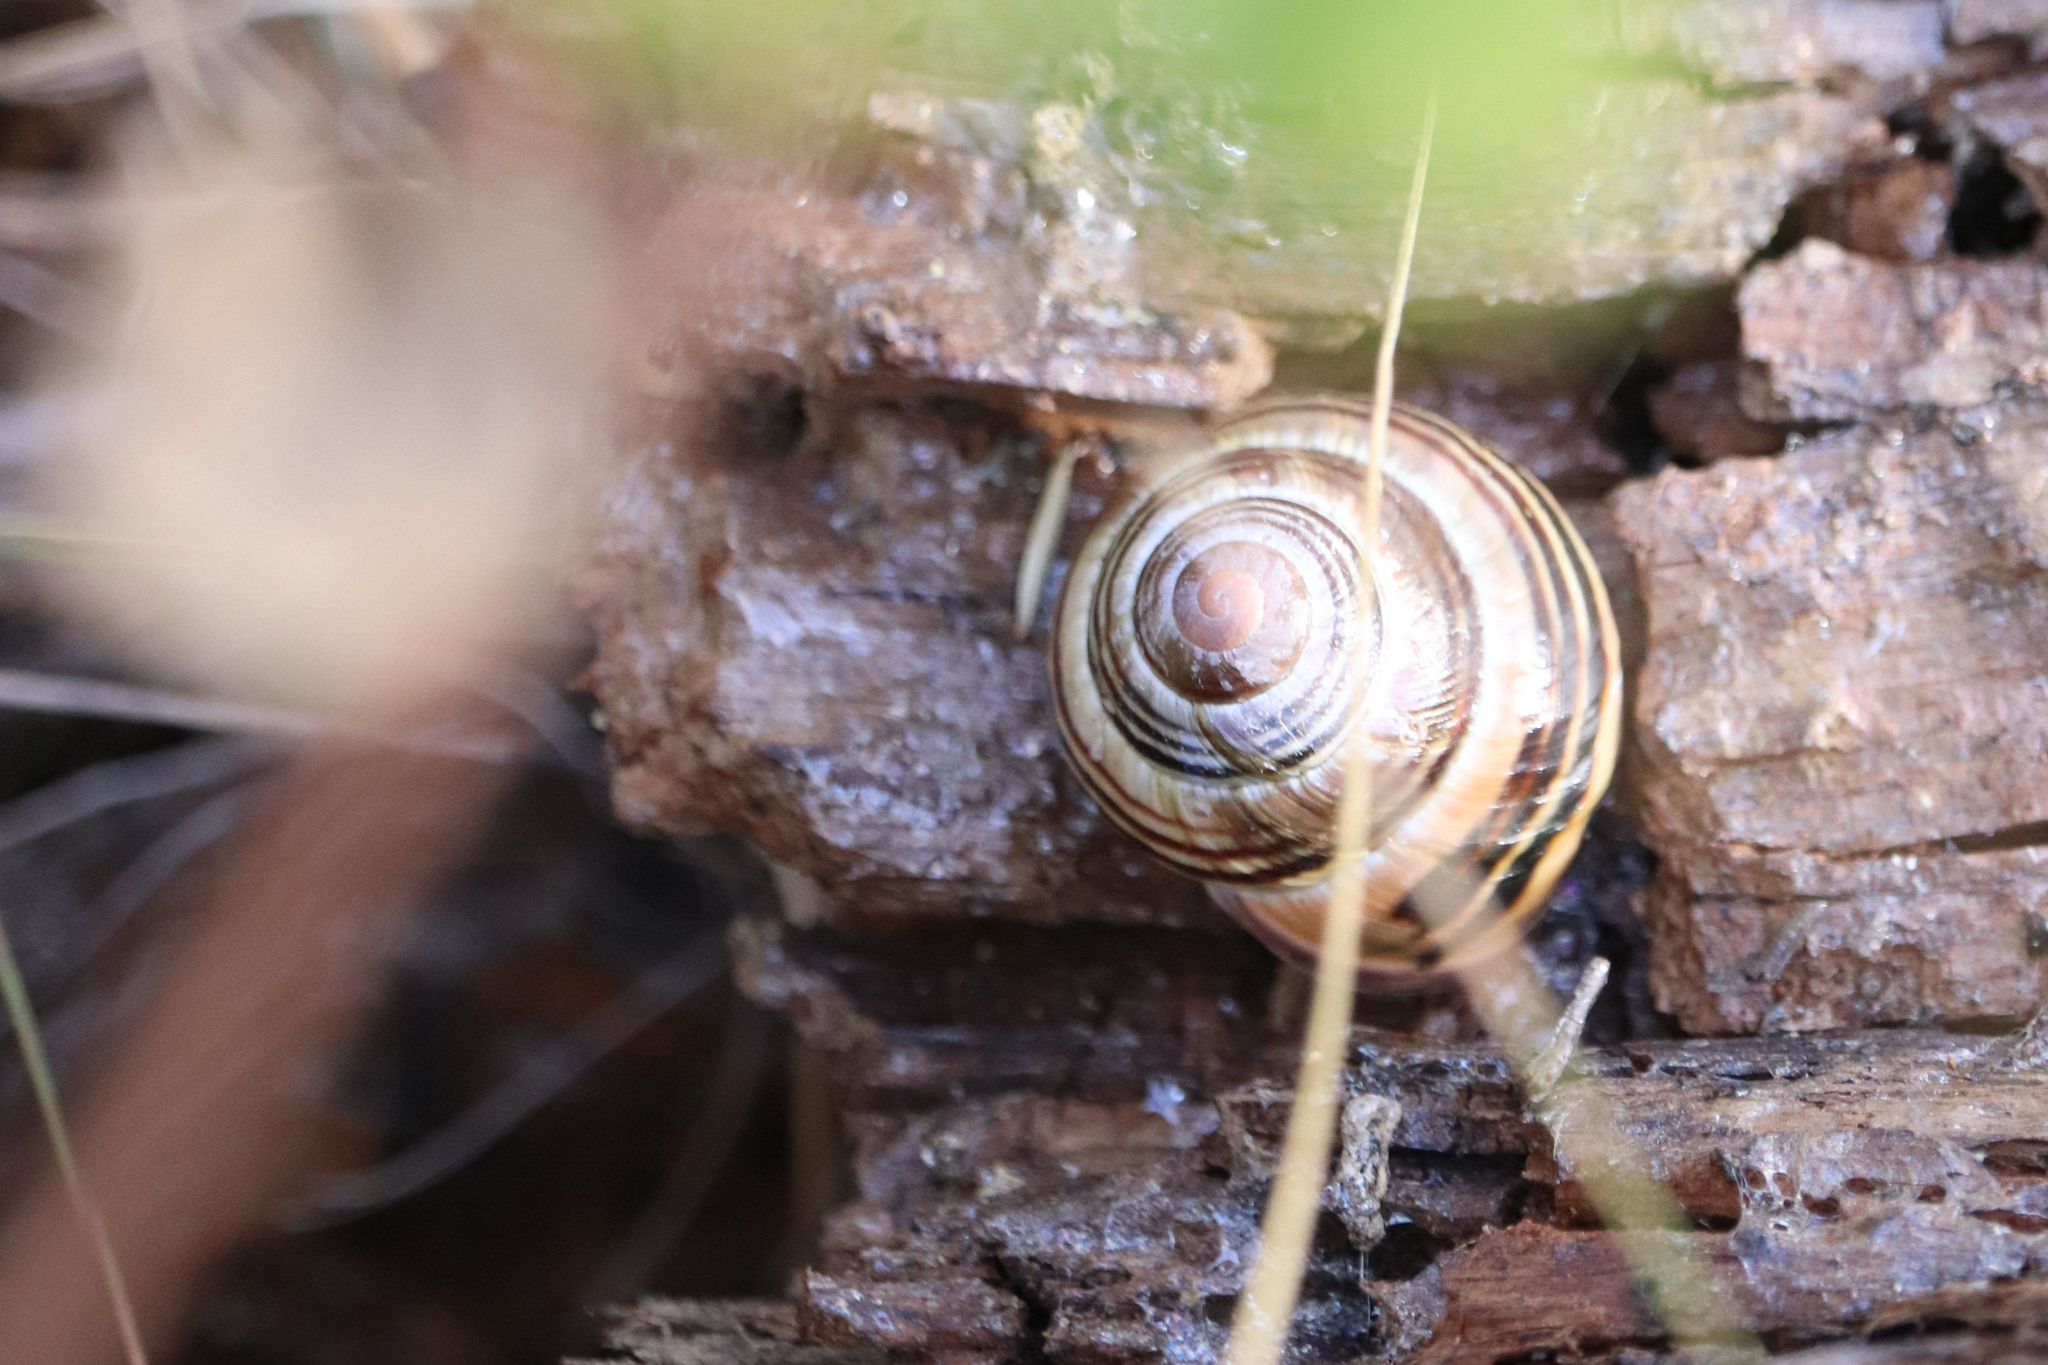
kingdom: Animalia
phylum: Mollusca
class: Gastropoda
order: Stylommatophora
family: Helicidae
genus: Cepaea
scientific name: Cepaea nemoralis
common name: Grovesnail
